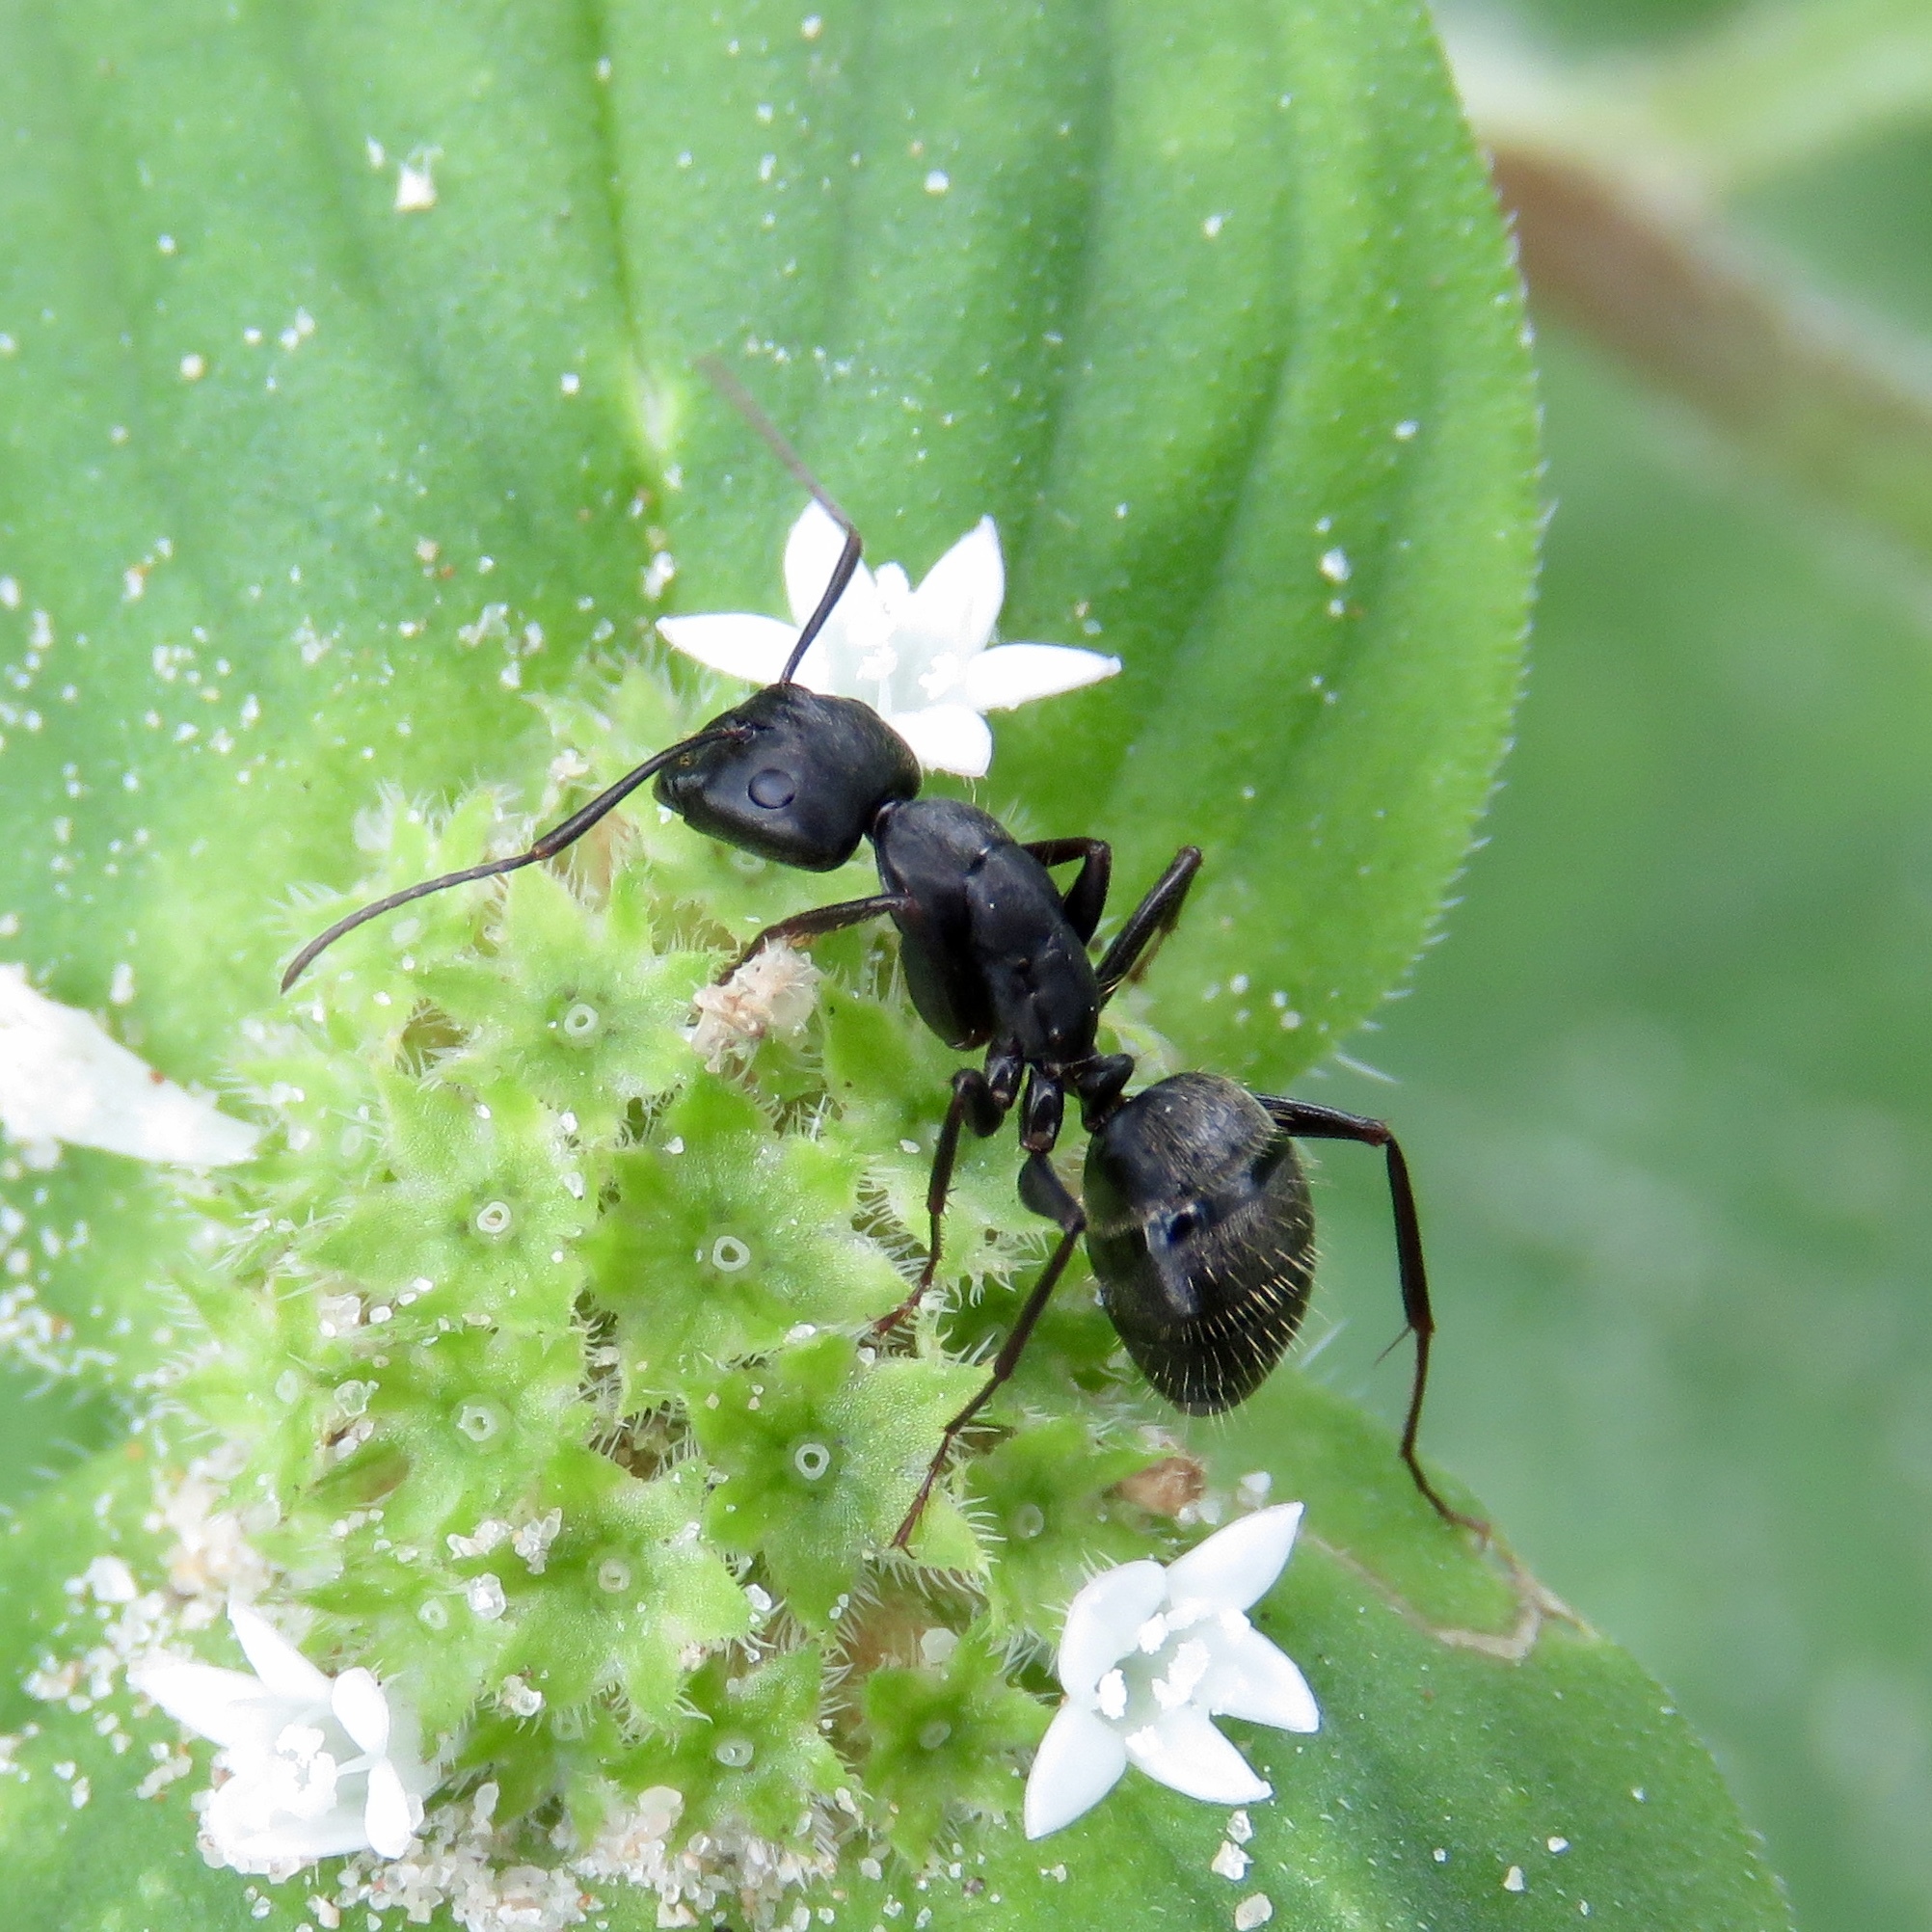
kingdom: Animalia
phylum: Arthropoda
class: Insecta
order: Hymenoptera
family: Formicidae
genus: Camponotus
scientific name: Camponotus pennsylvanicus
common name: Black carpenter ant
